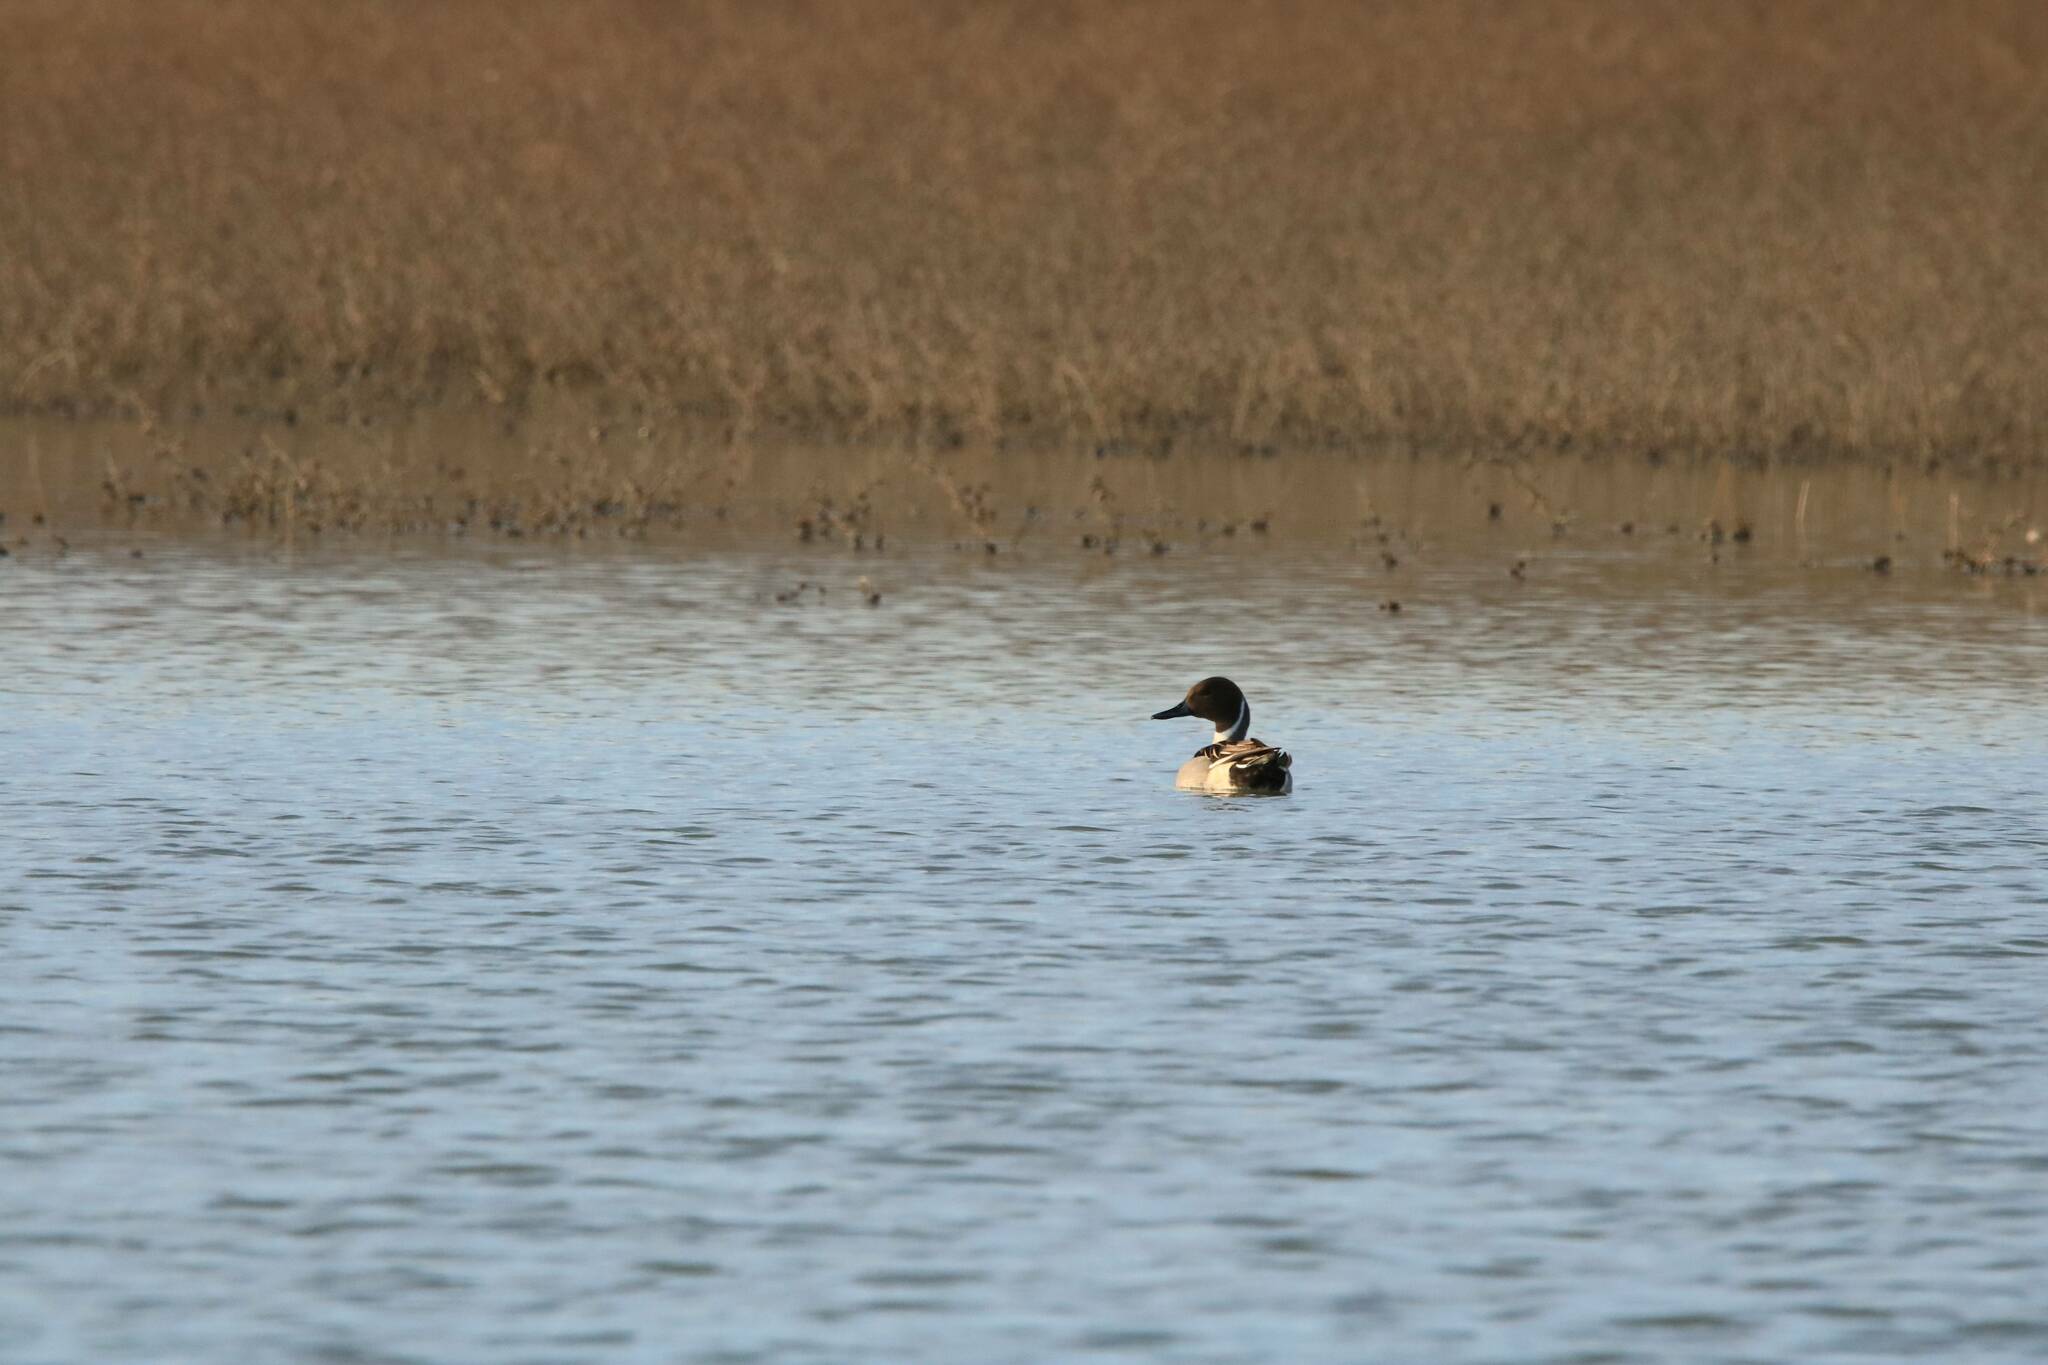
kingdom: Animalia
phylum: Chordata
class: Aves
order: Anseriformes
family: Anatidae
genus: Anas
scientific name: Anas acuta
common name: Northern pintail
